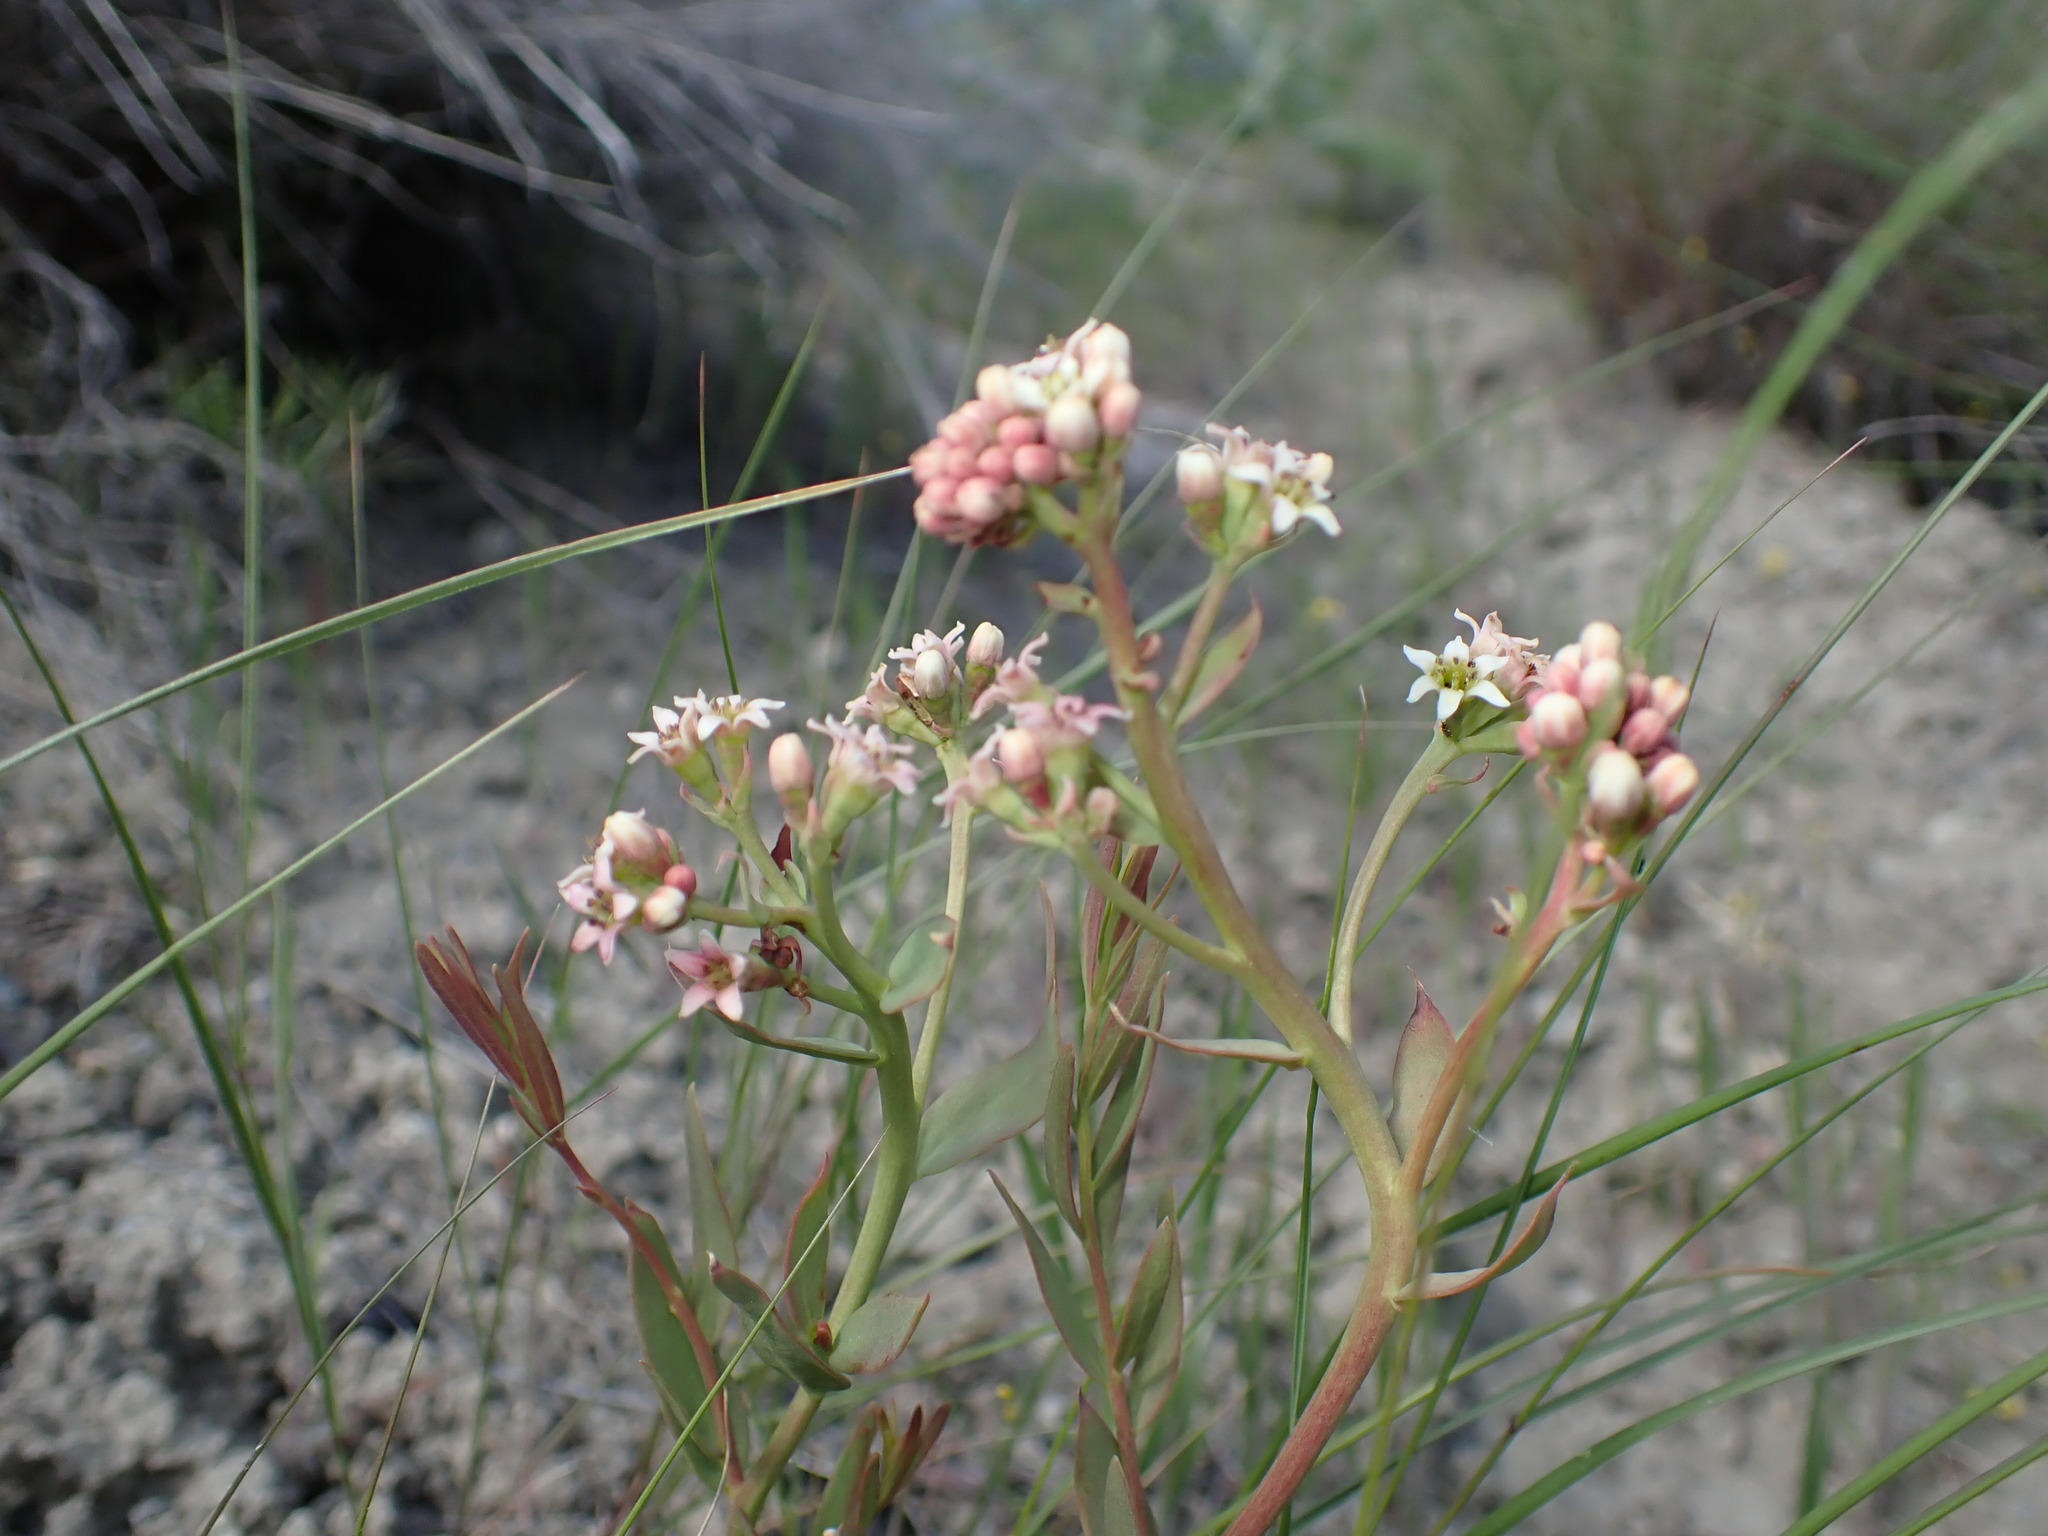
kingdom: Plantae
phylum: Tracheophyta
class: Magnoliopsida
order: Santalales
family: Comandraceae
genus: Comandra
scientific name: Comandra umbellata
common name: Bastard toadflax
